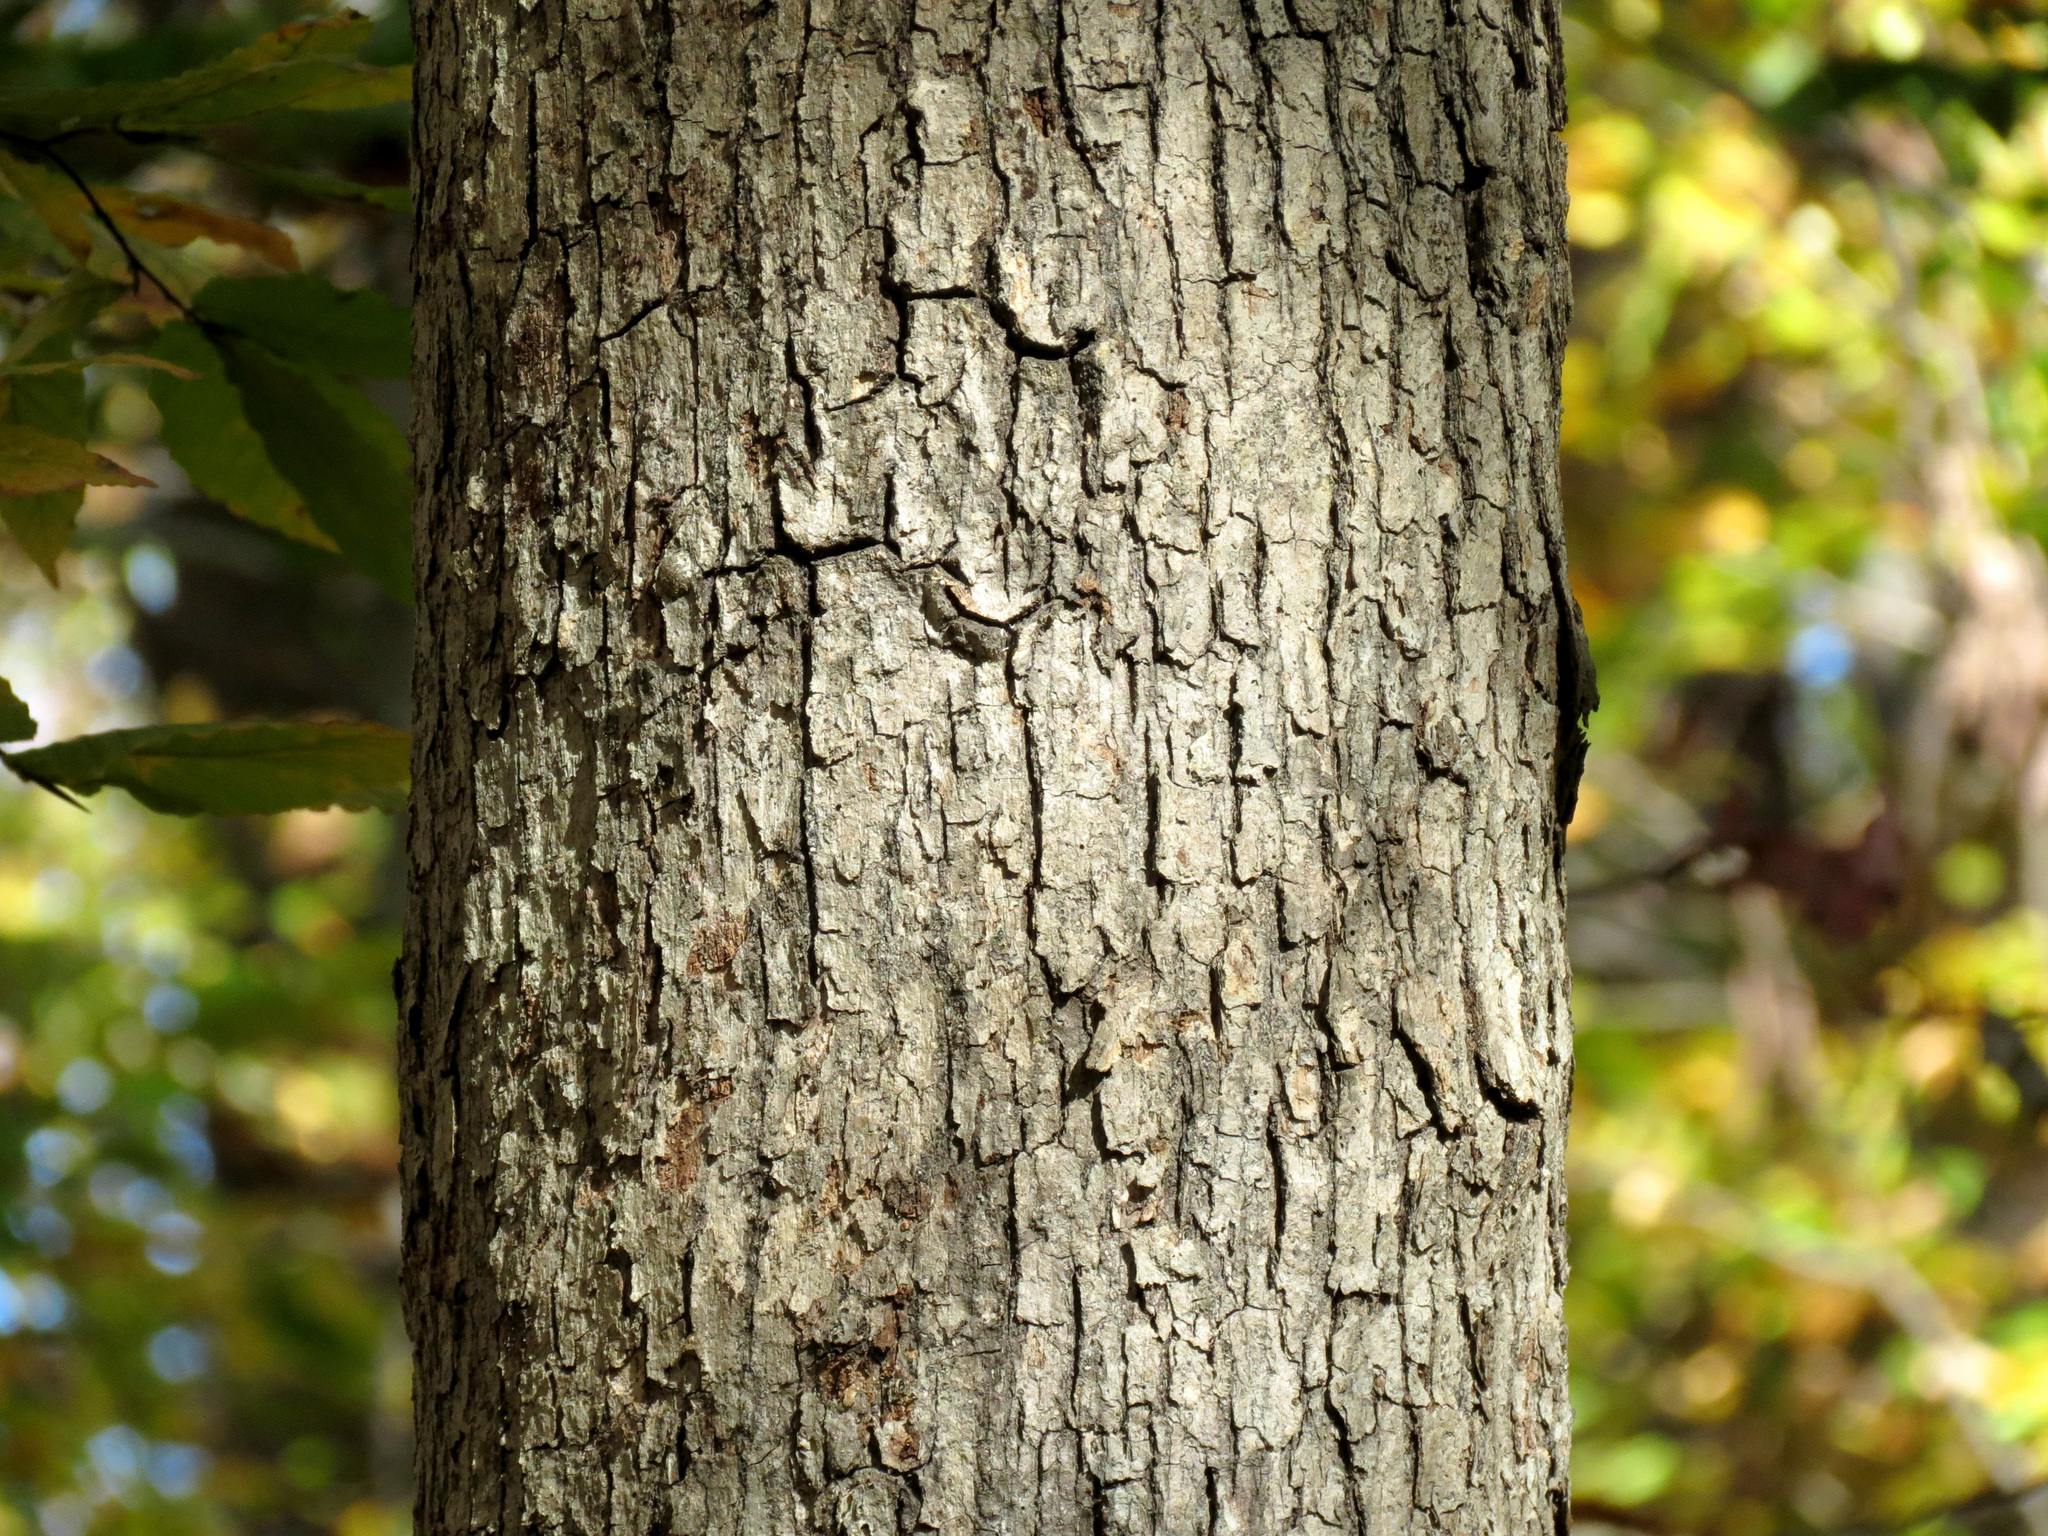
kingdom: Plantae
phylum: Tracheophyta
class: Magnoliopsida
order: Fagales
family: Fagaceae
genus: Quercus
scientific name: Quercus alba
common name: White oak
